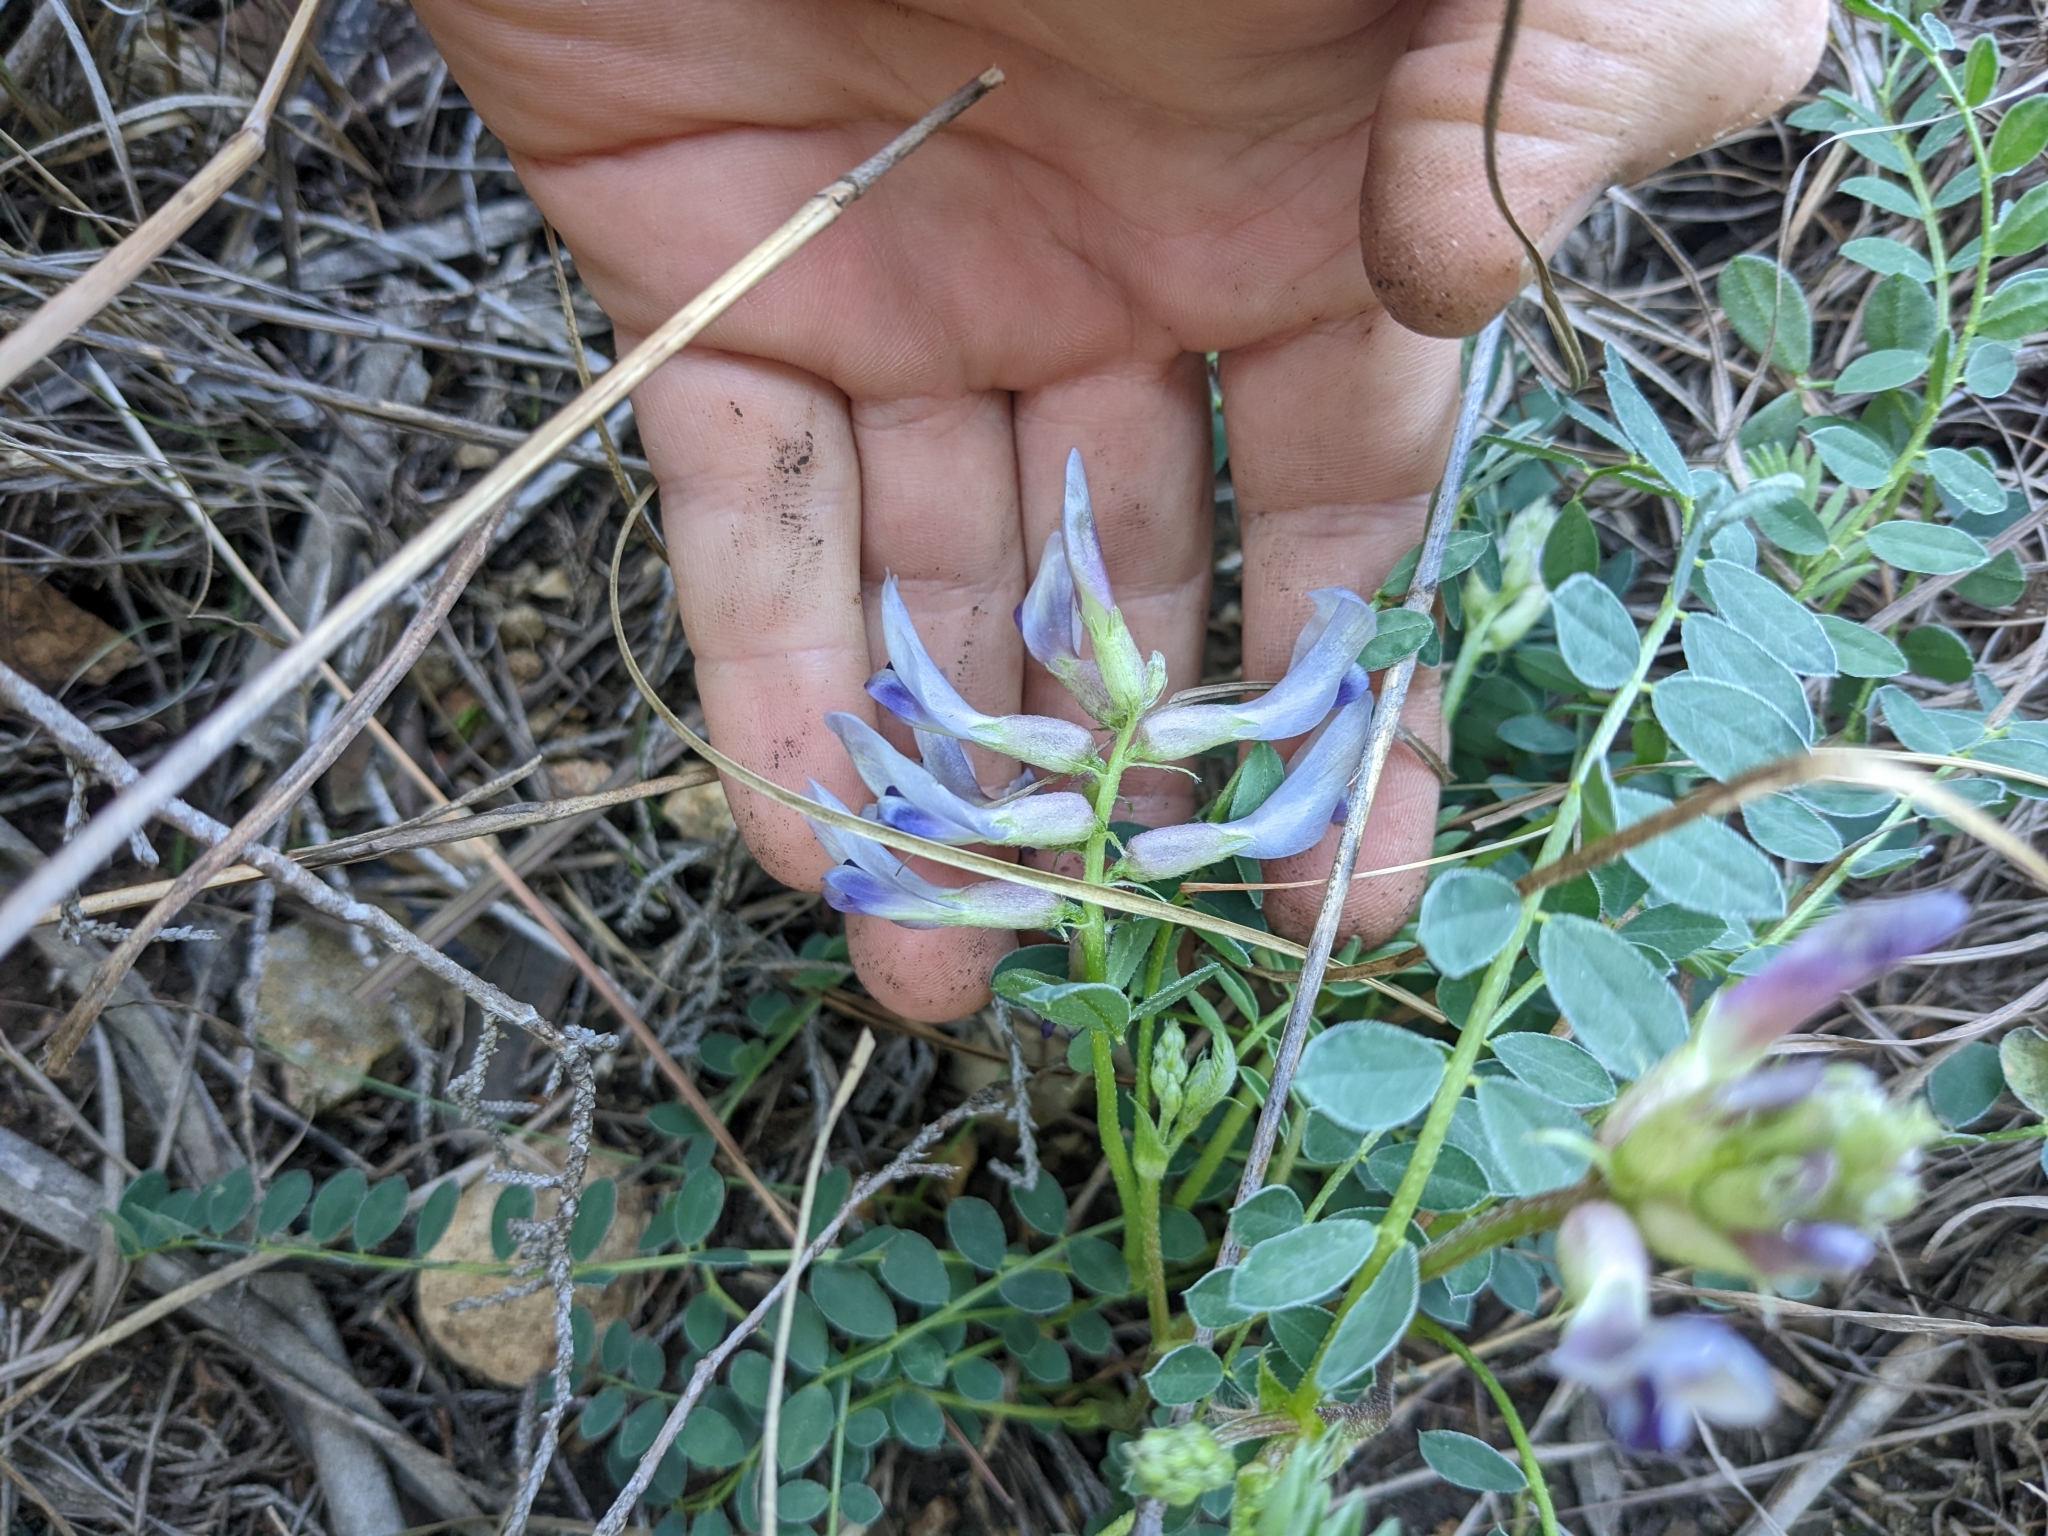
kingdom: Plantae
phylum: Tracheophyta
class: Magnoliopsida
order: Fabales
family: Fabaceae
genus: Astragalus
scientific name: Astragalus crassicarpus
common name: Ground-plum milk-vetch
